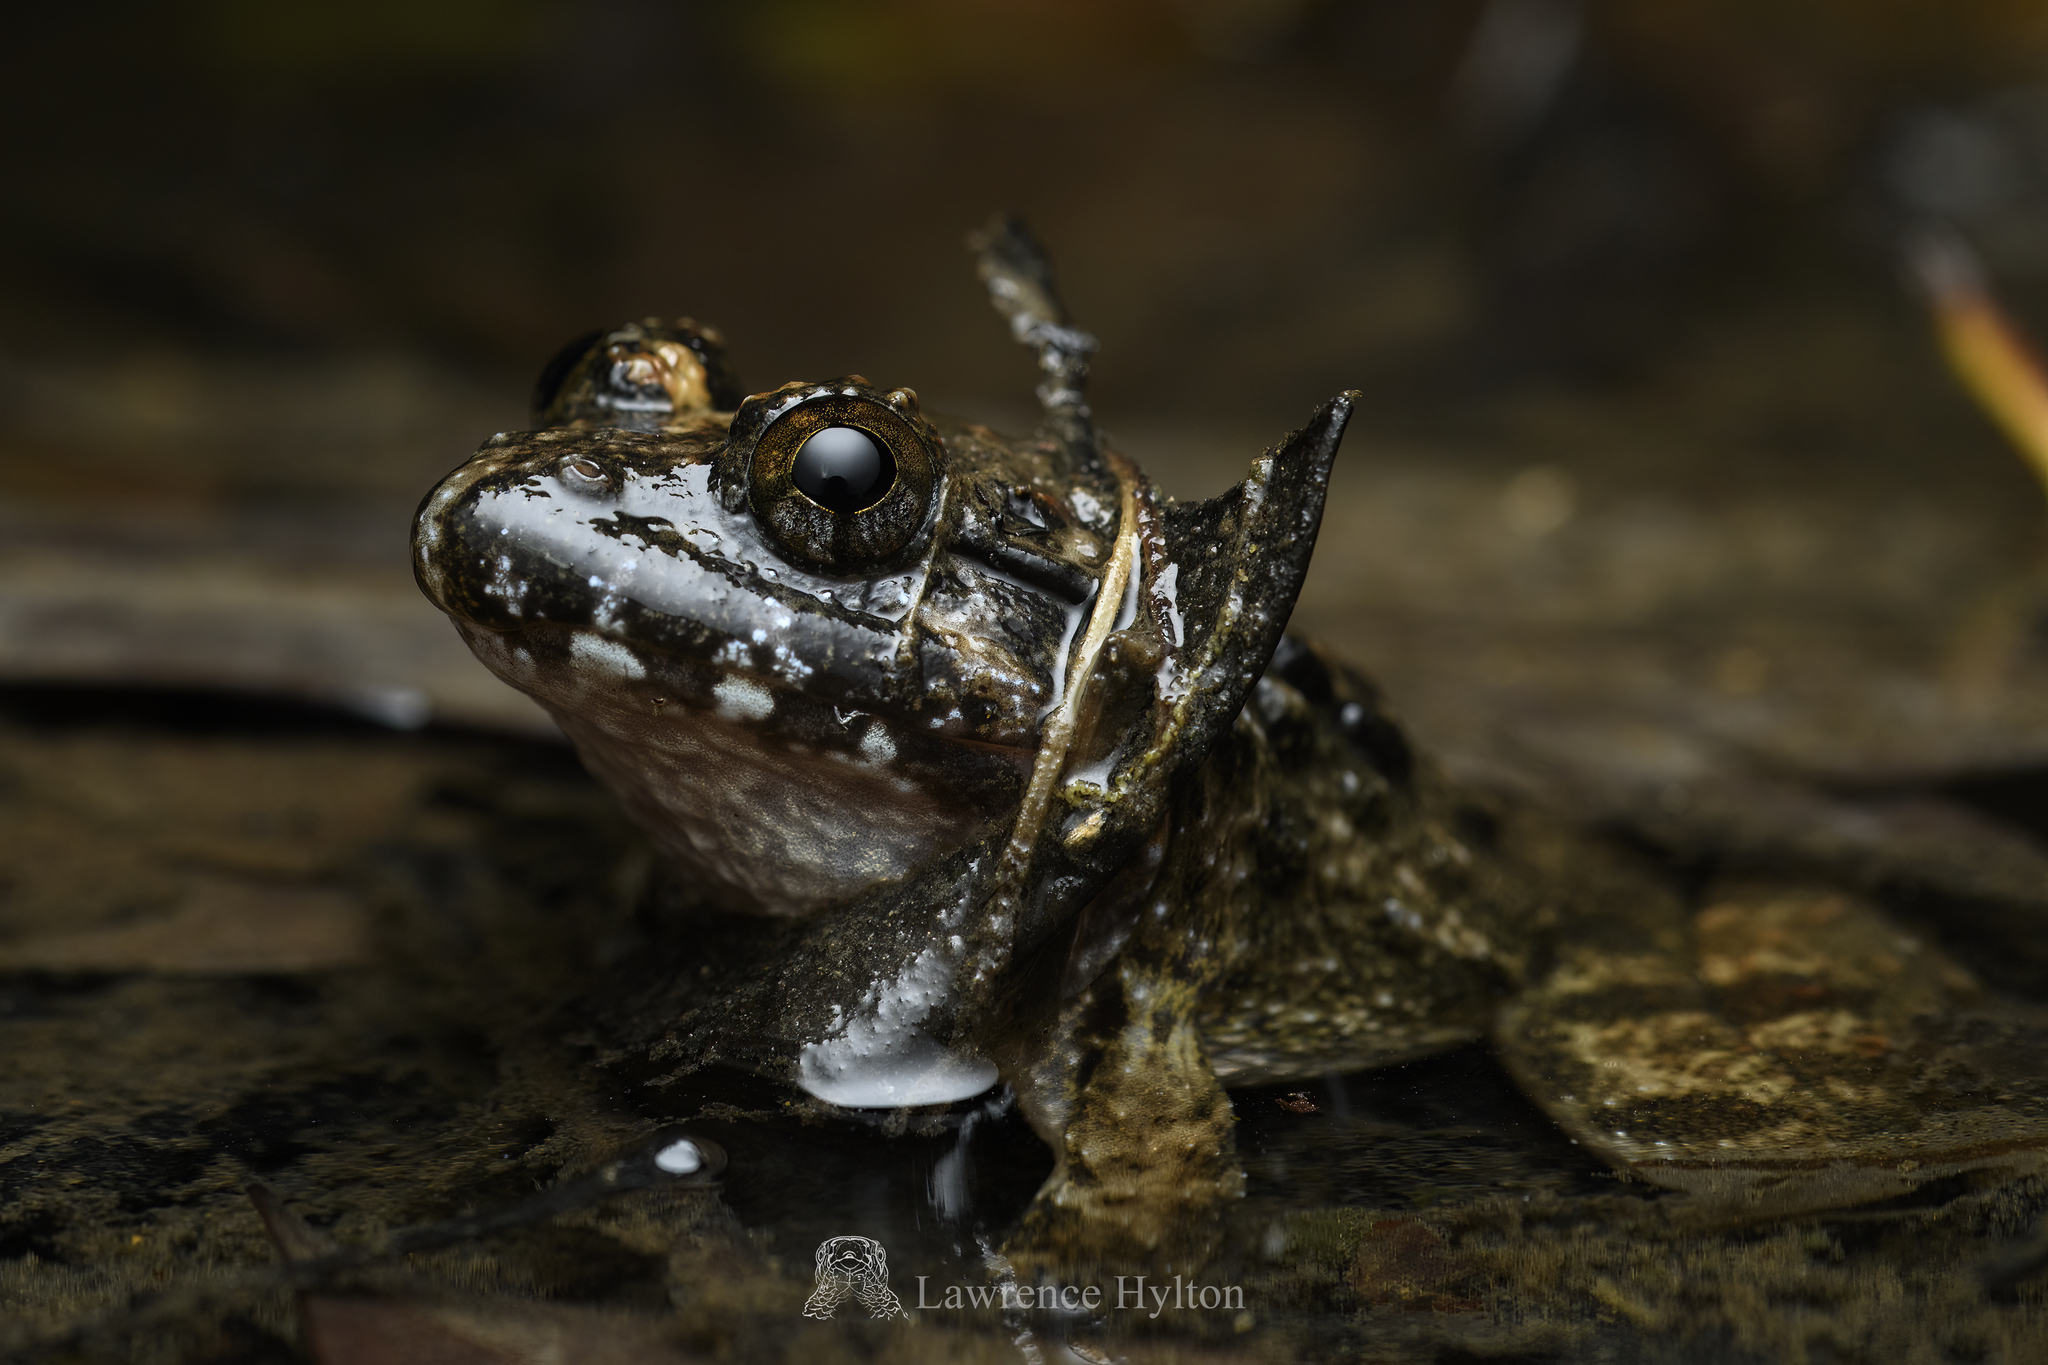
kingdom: Animalia
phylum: Chordata
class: Amphibia
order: Anura
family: Dicroglossidae
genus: Limnonectes
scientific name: Limnonectes fujianensis
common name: Fujian large-headed frog
